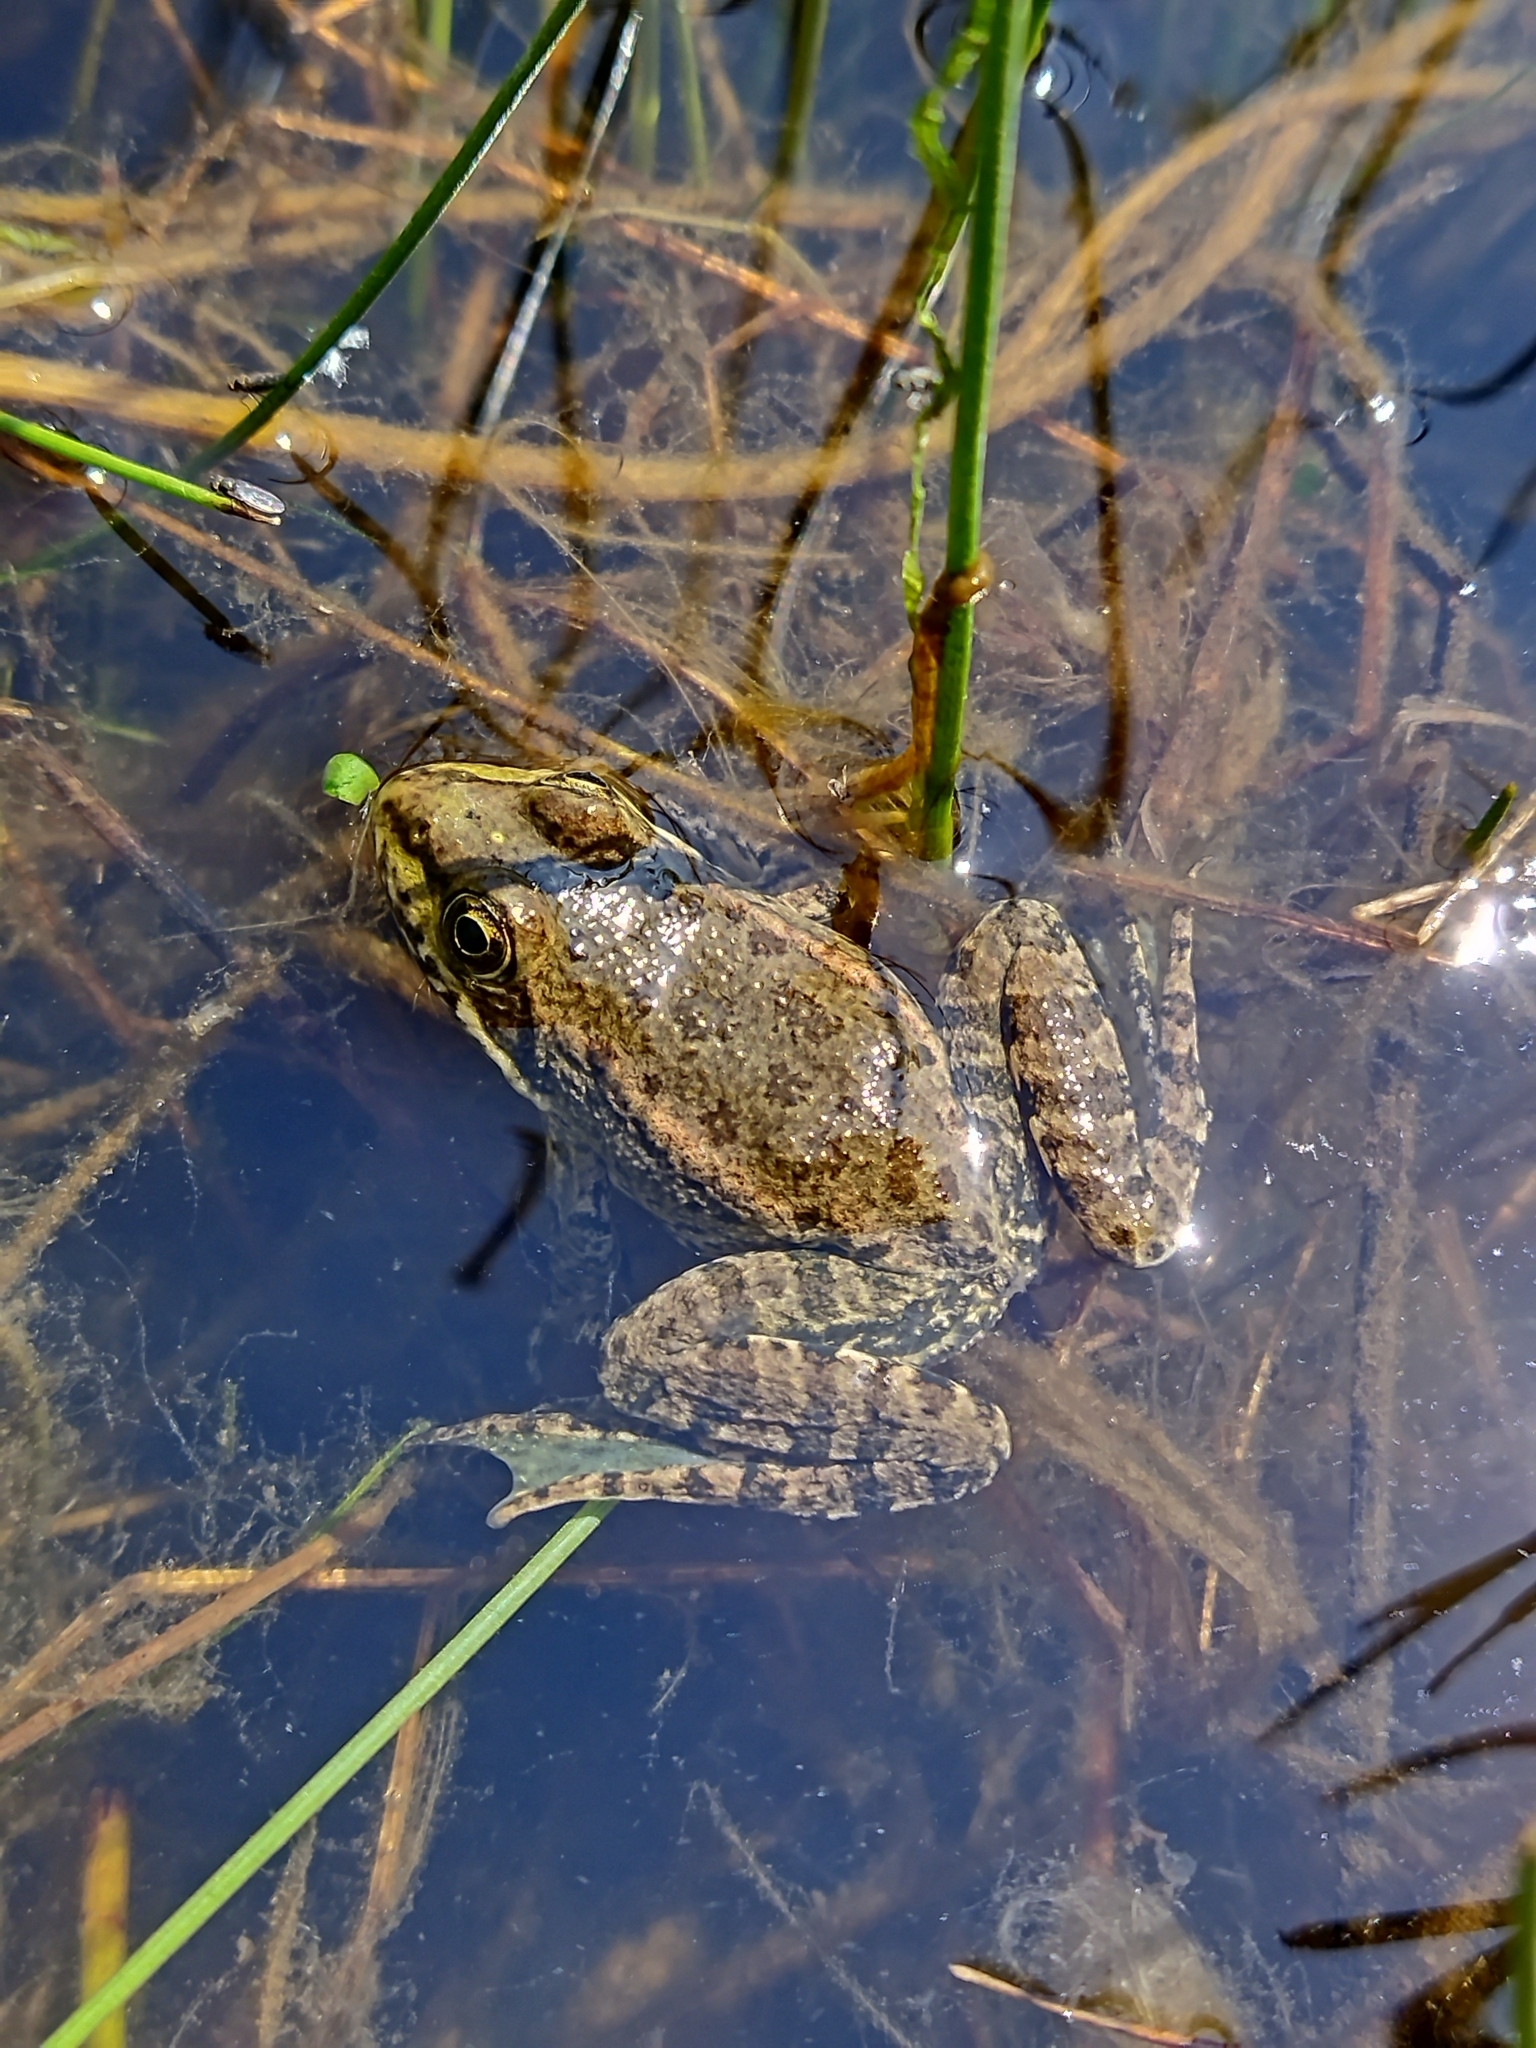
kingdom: Animalia
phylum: Chordata
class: Amphibia
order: Anura
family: Ranidae
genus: Pelophylax
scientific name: Pelophylax ridibundus
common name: Marsh frog
